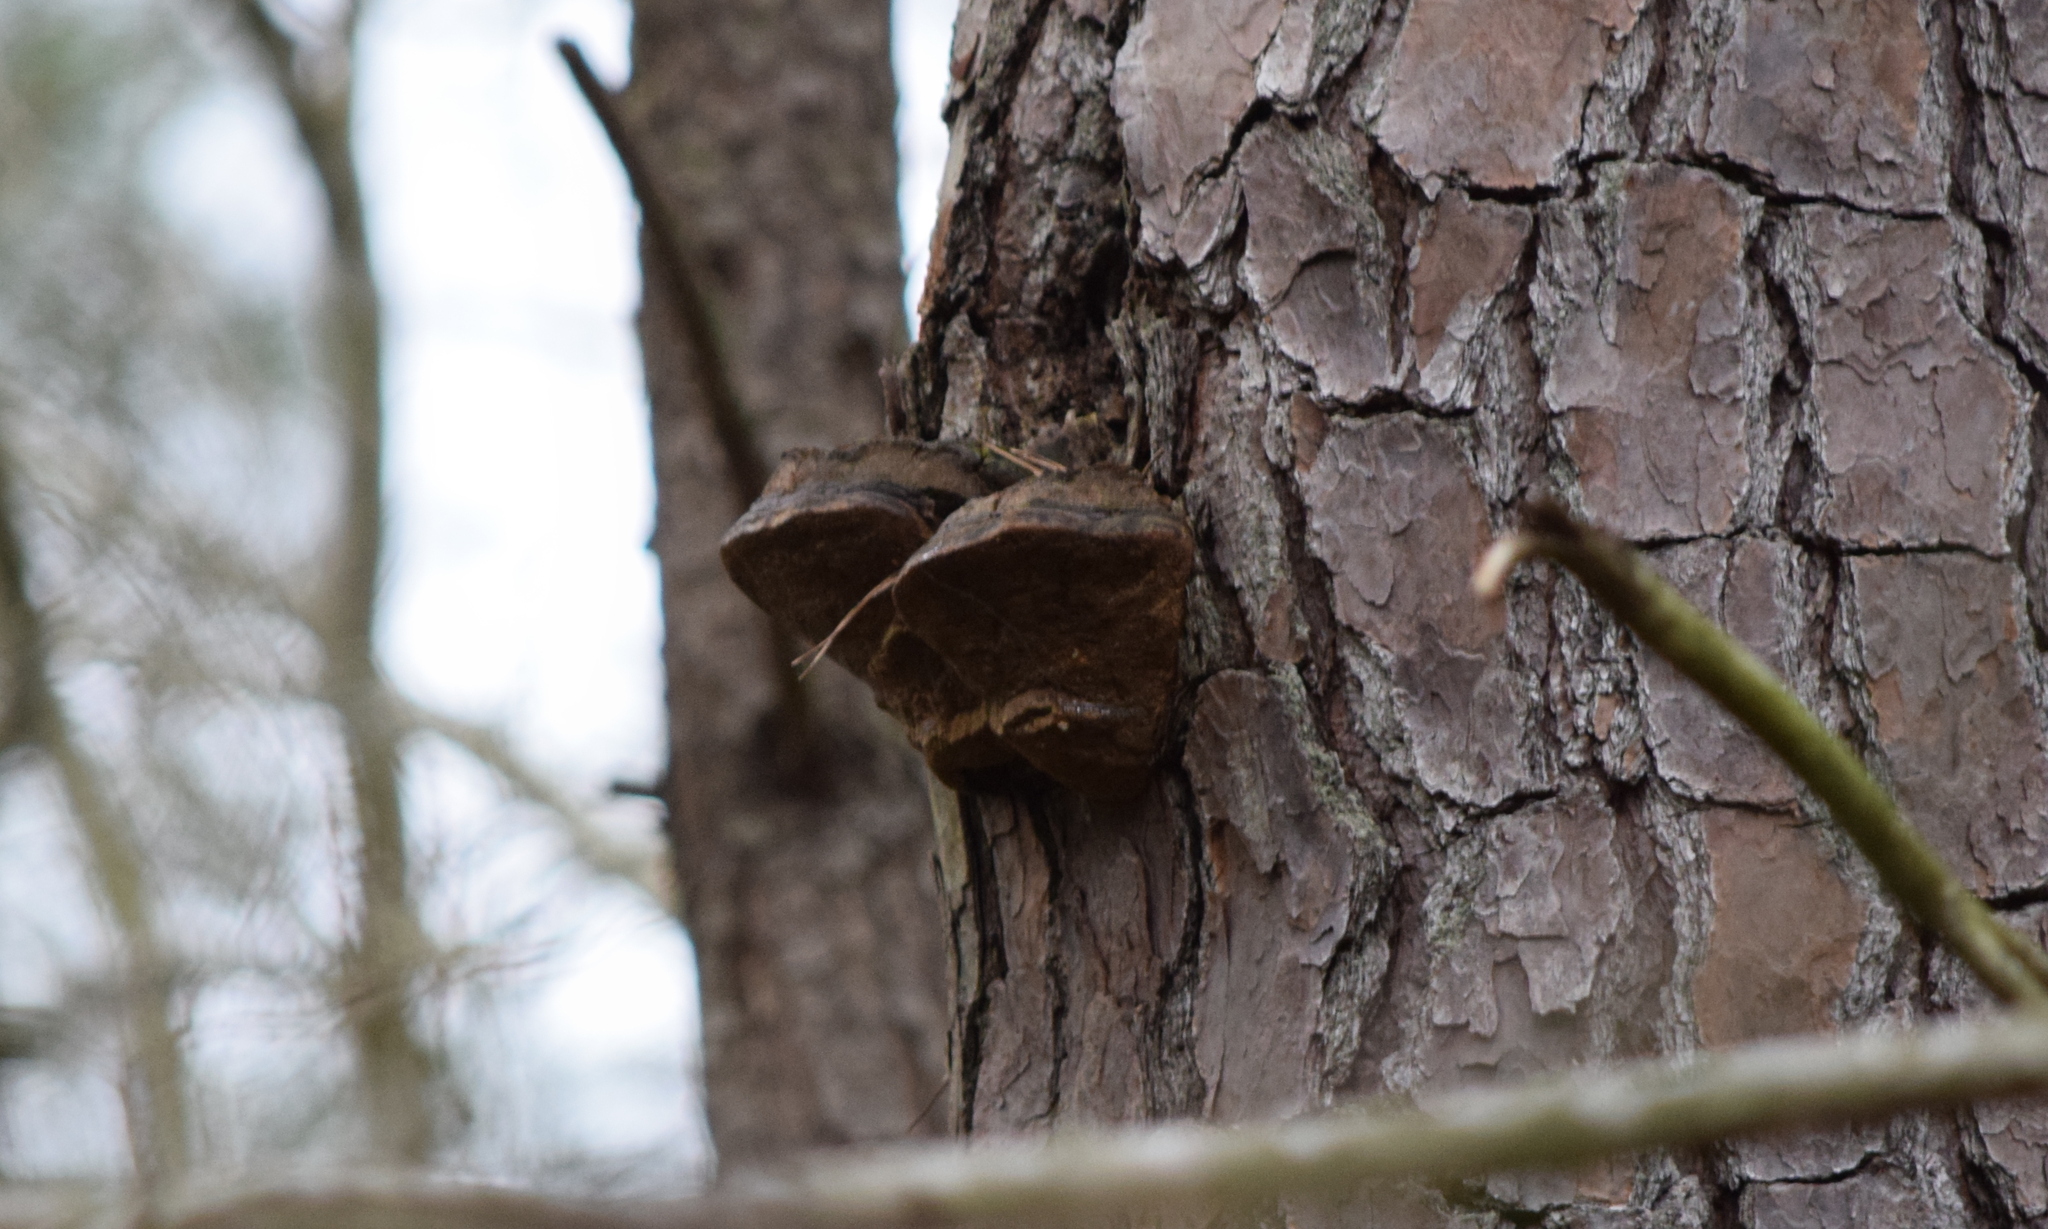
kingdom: Fungi
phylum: Basidiomycota
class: Agaricomycetes
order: Hymenochaetales
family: Hymenochaetaceae
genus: Porodaedalea
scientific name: Porodaedalea pini
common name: Pine bracket
